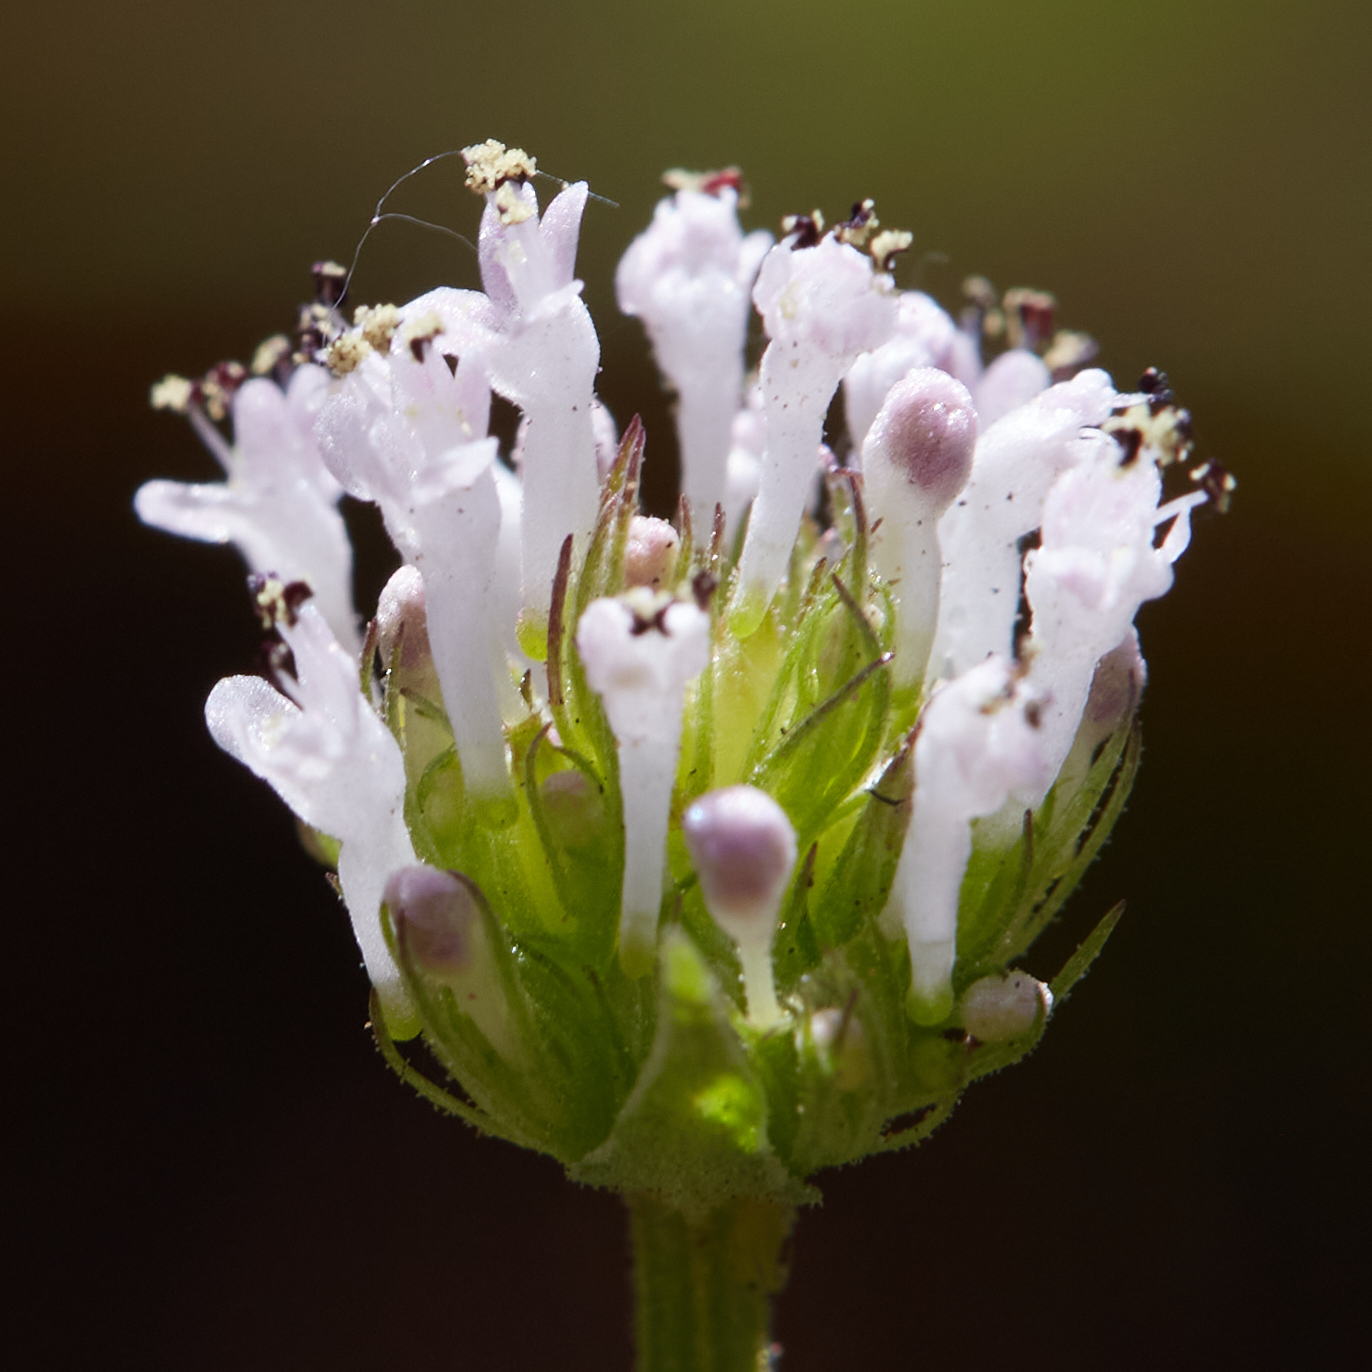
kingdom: Plantae
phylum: Tracheophyta
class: Magnoliopsida
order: Dipsacales
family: Caprifoliaceae
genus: Plectritis
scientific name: Plectritis macroptera
